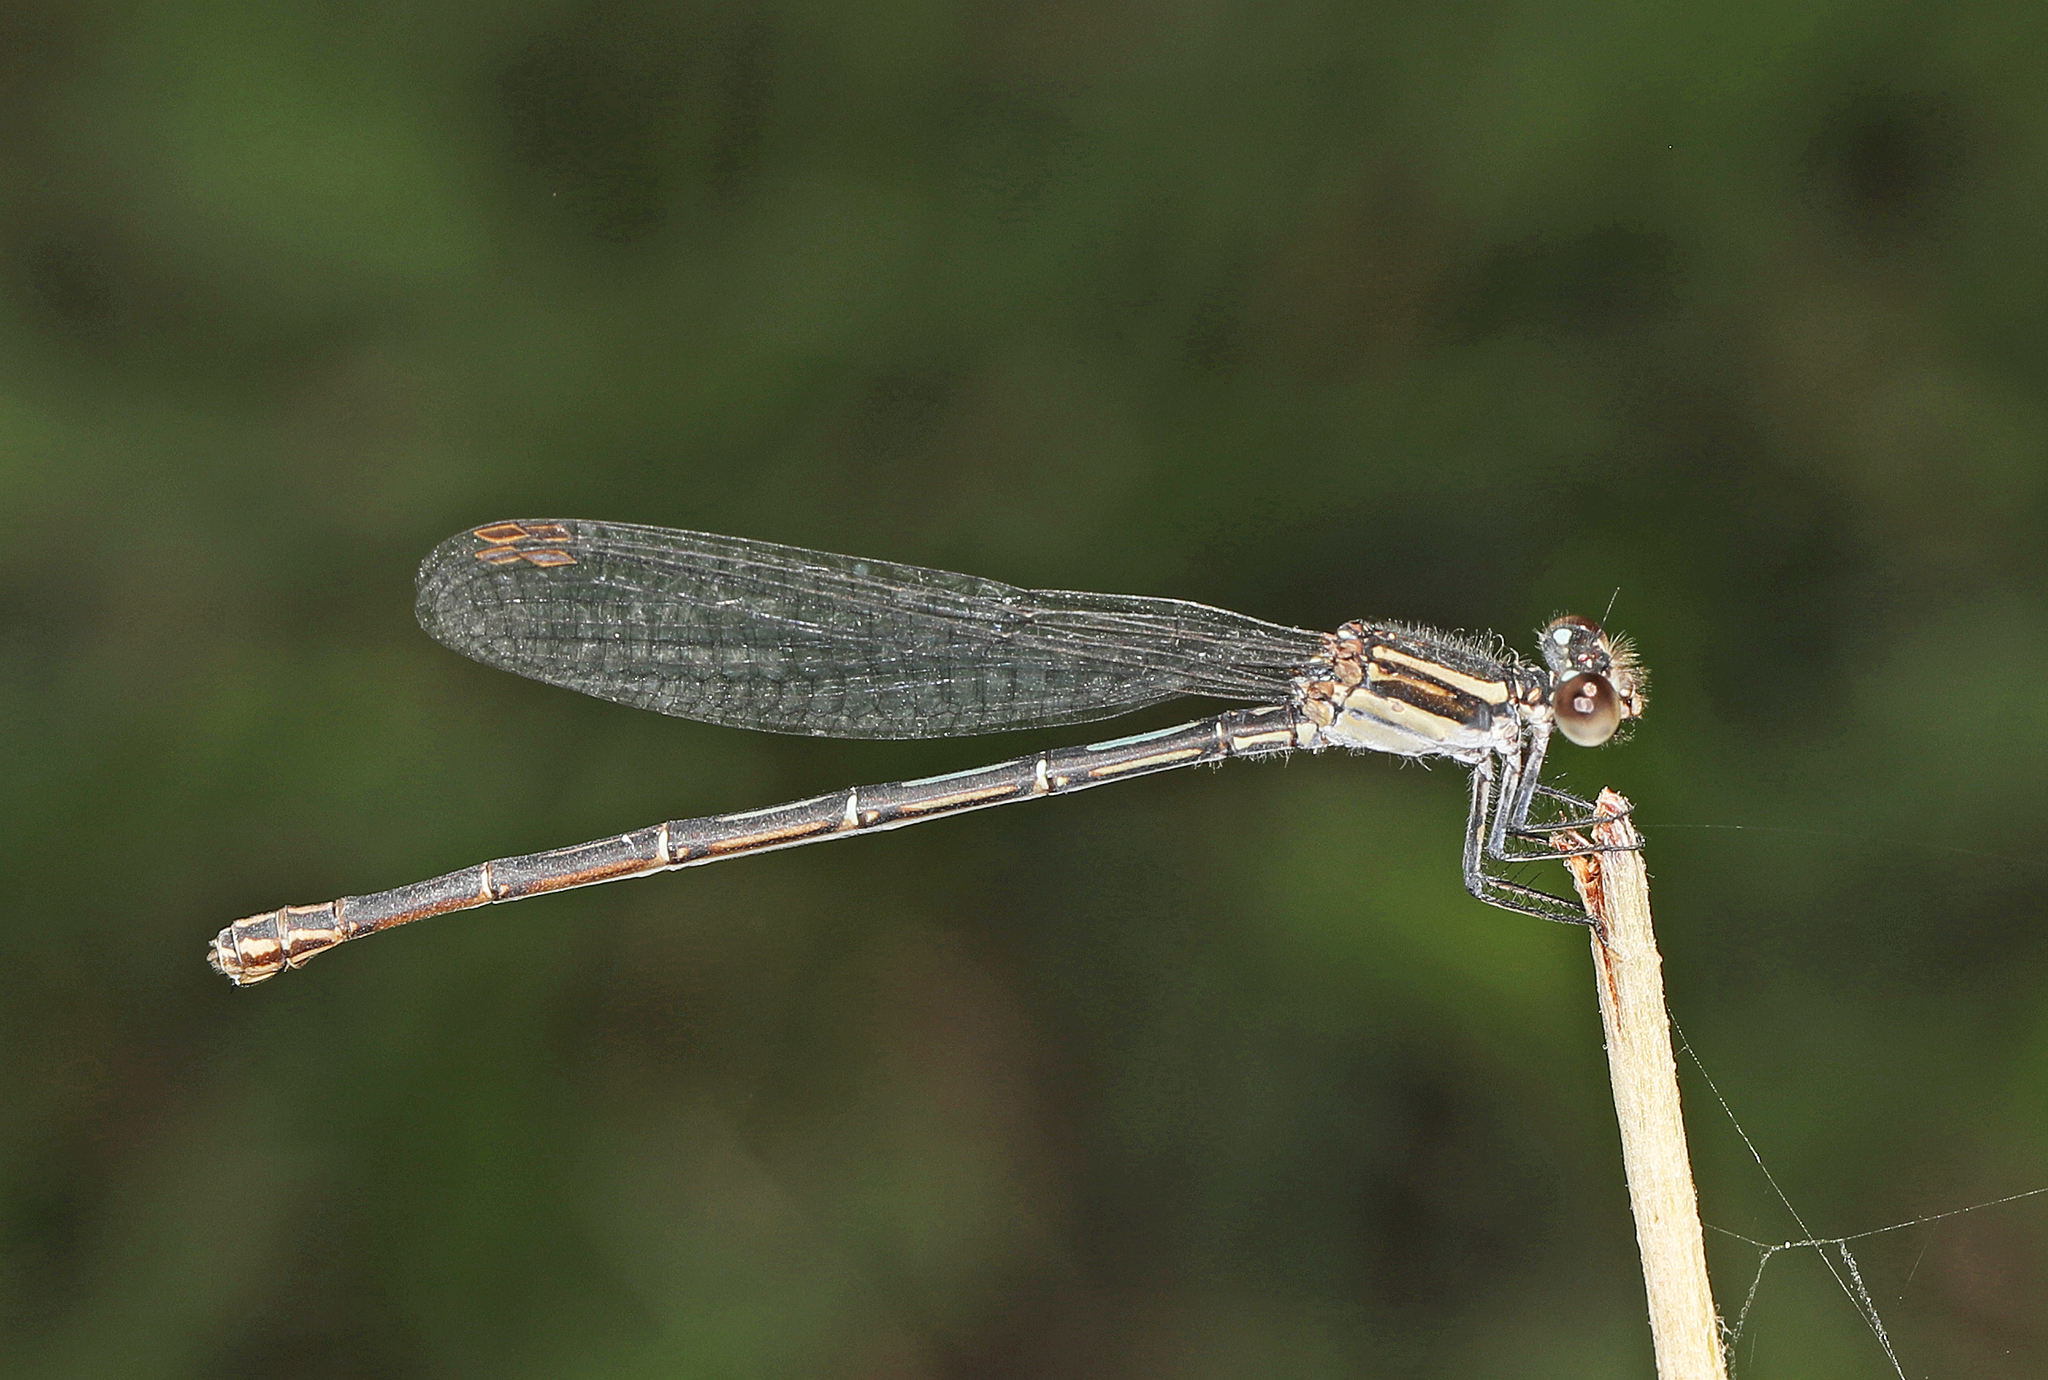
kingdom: Animalia
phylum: Arthropoda
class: Insecta
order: Odonata
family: Coenagrionidae
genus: Argia
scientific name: Argia translata
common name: Dusky dancer
